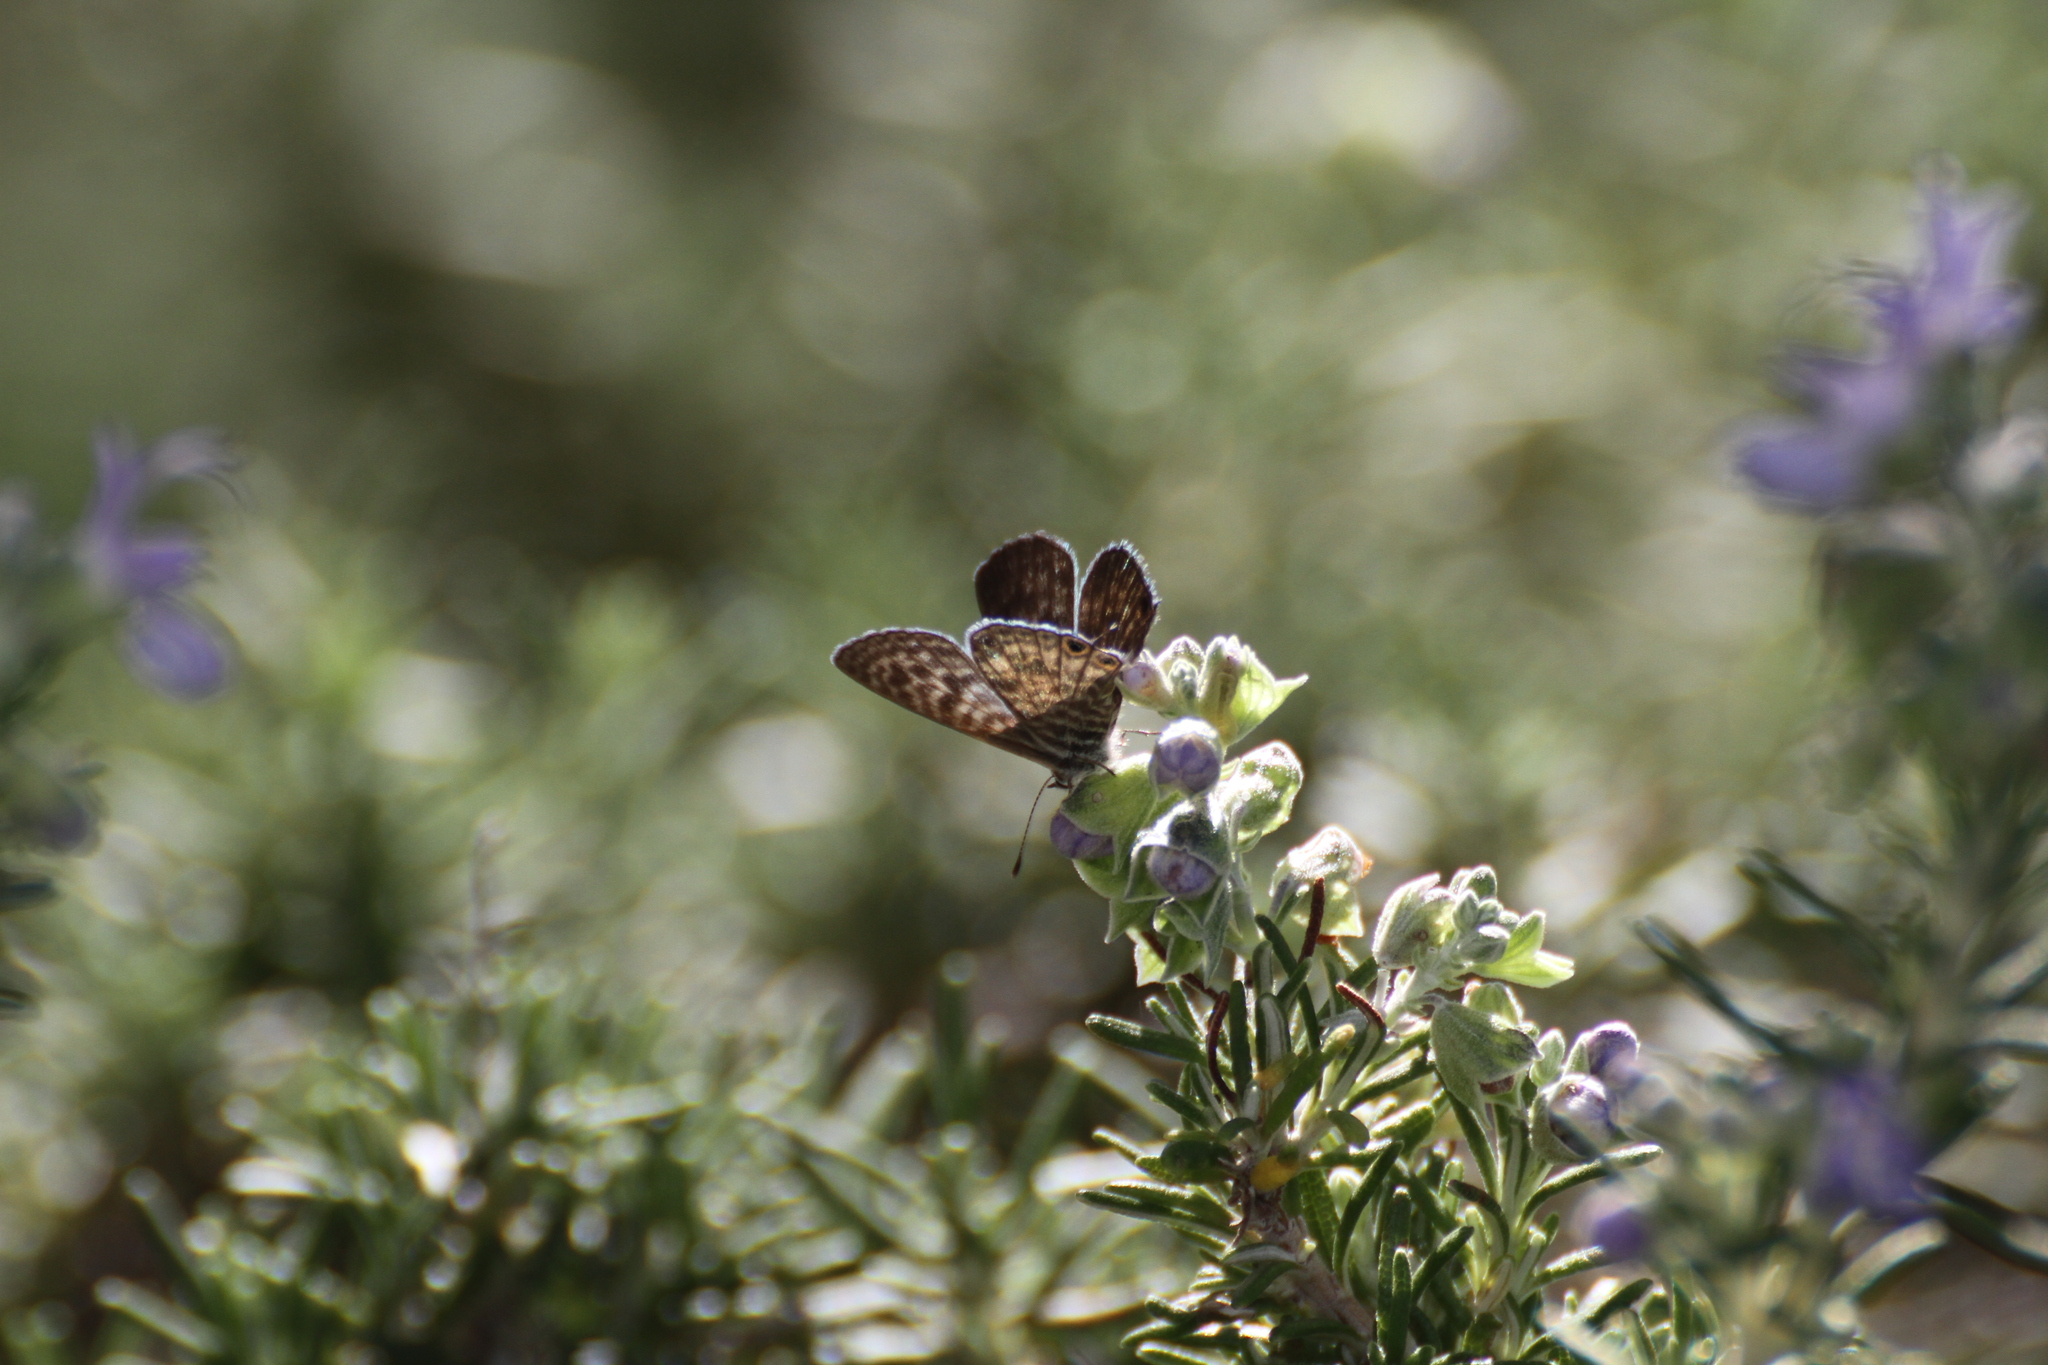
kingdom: Animalia
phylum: Arthropoda
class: Insecta
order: Lepidoptera
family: Lycaenidae
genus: Leptotes
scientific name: Leptotes pirithous
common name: Lang's short-tailed blue
